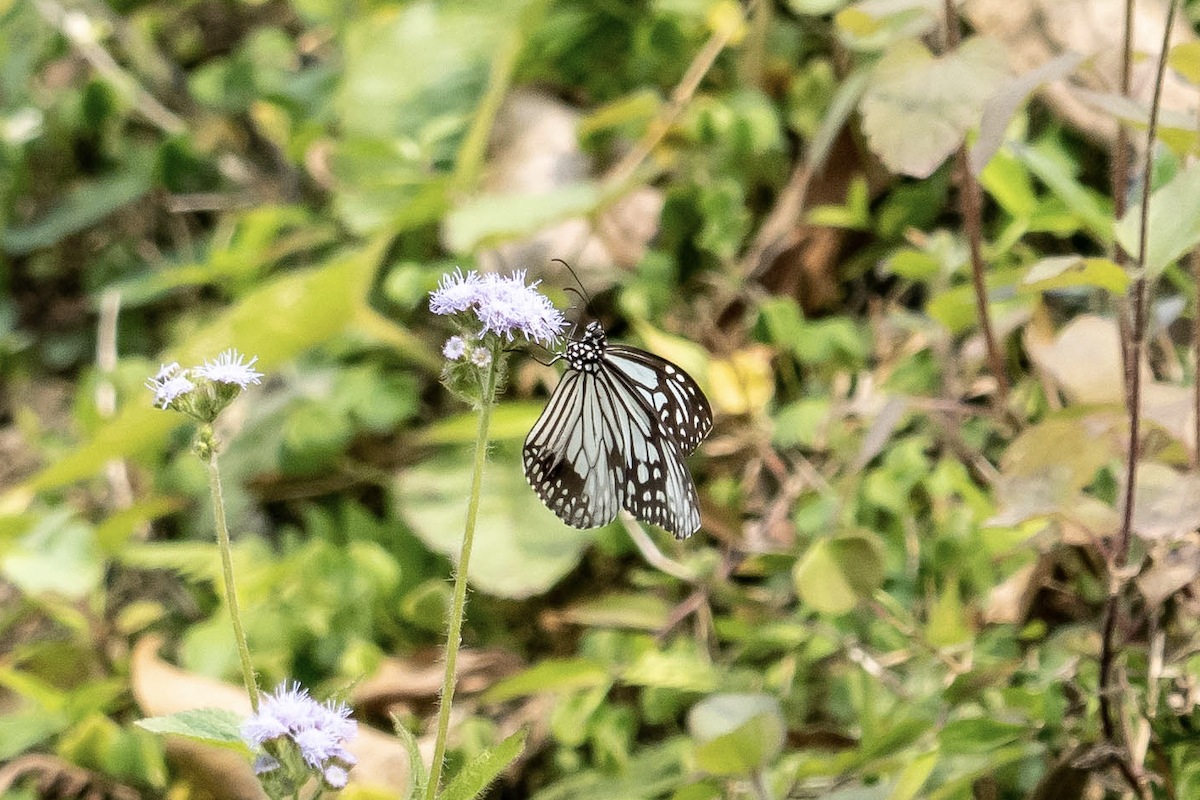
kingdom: Animalia
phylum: Arthropoda
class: Insecta
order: Lepidoptera
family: Nymphalidae
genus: Parantica
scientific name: Parantica aglea
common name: Glassy tiger
